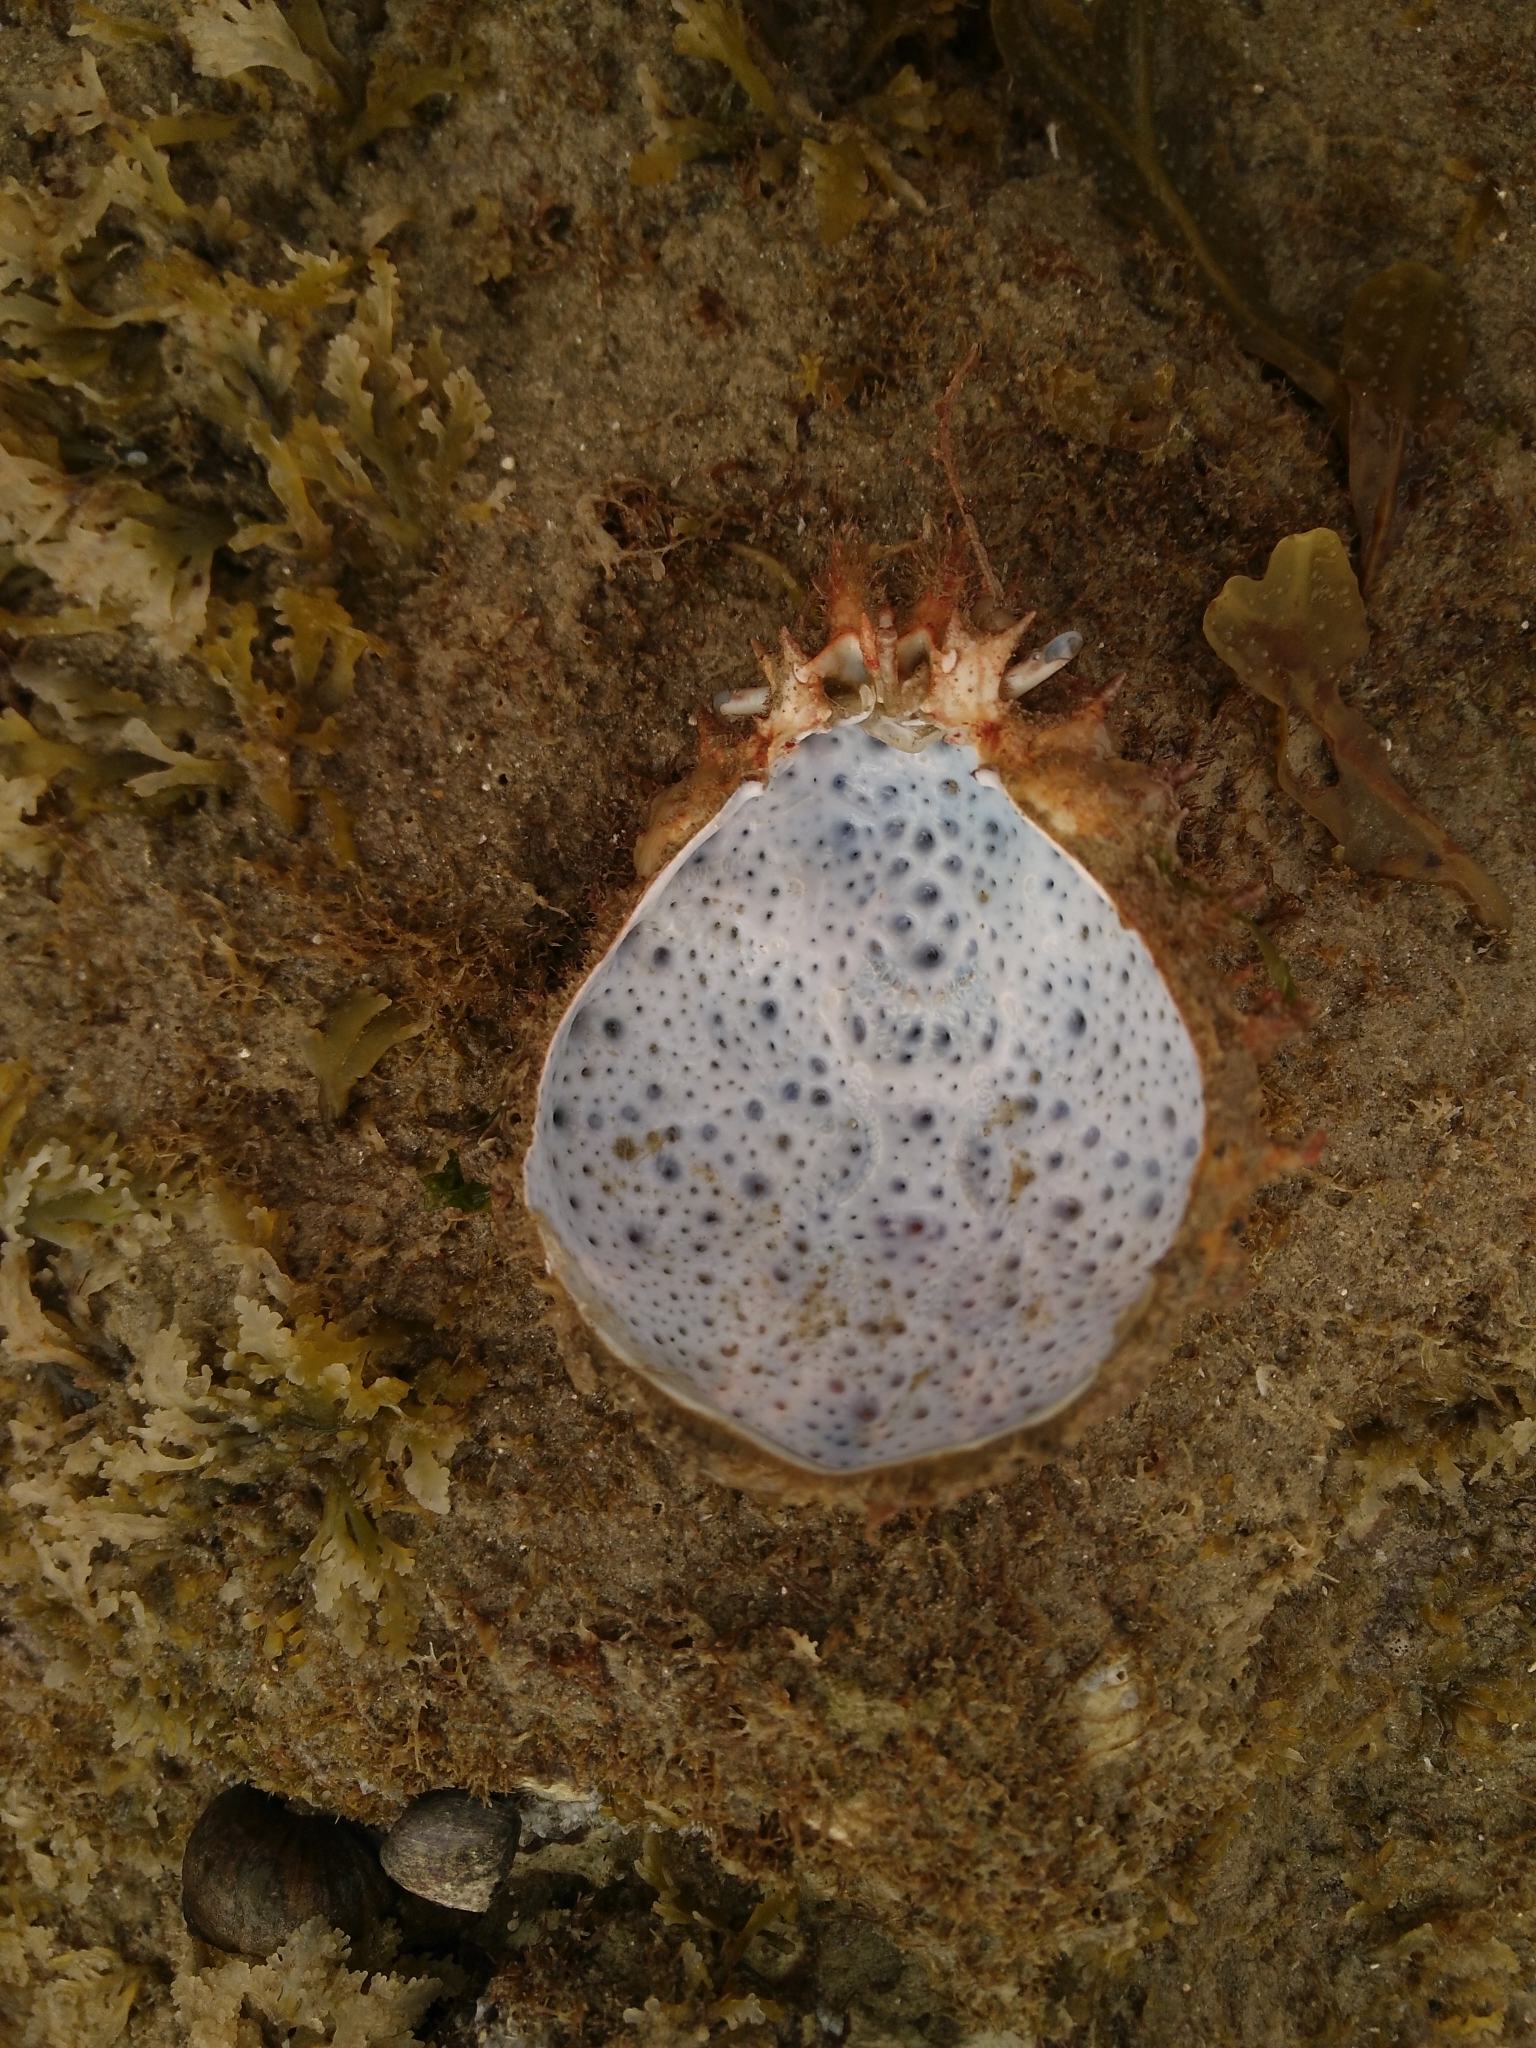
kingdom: Animalia
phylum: Arthropoda
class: Malacostraca
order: Decapoda
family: Majidae
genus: Maja
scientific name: Maja brachydactyla
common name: Common spider crab
